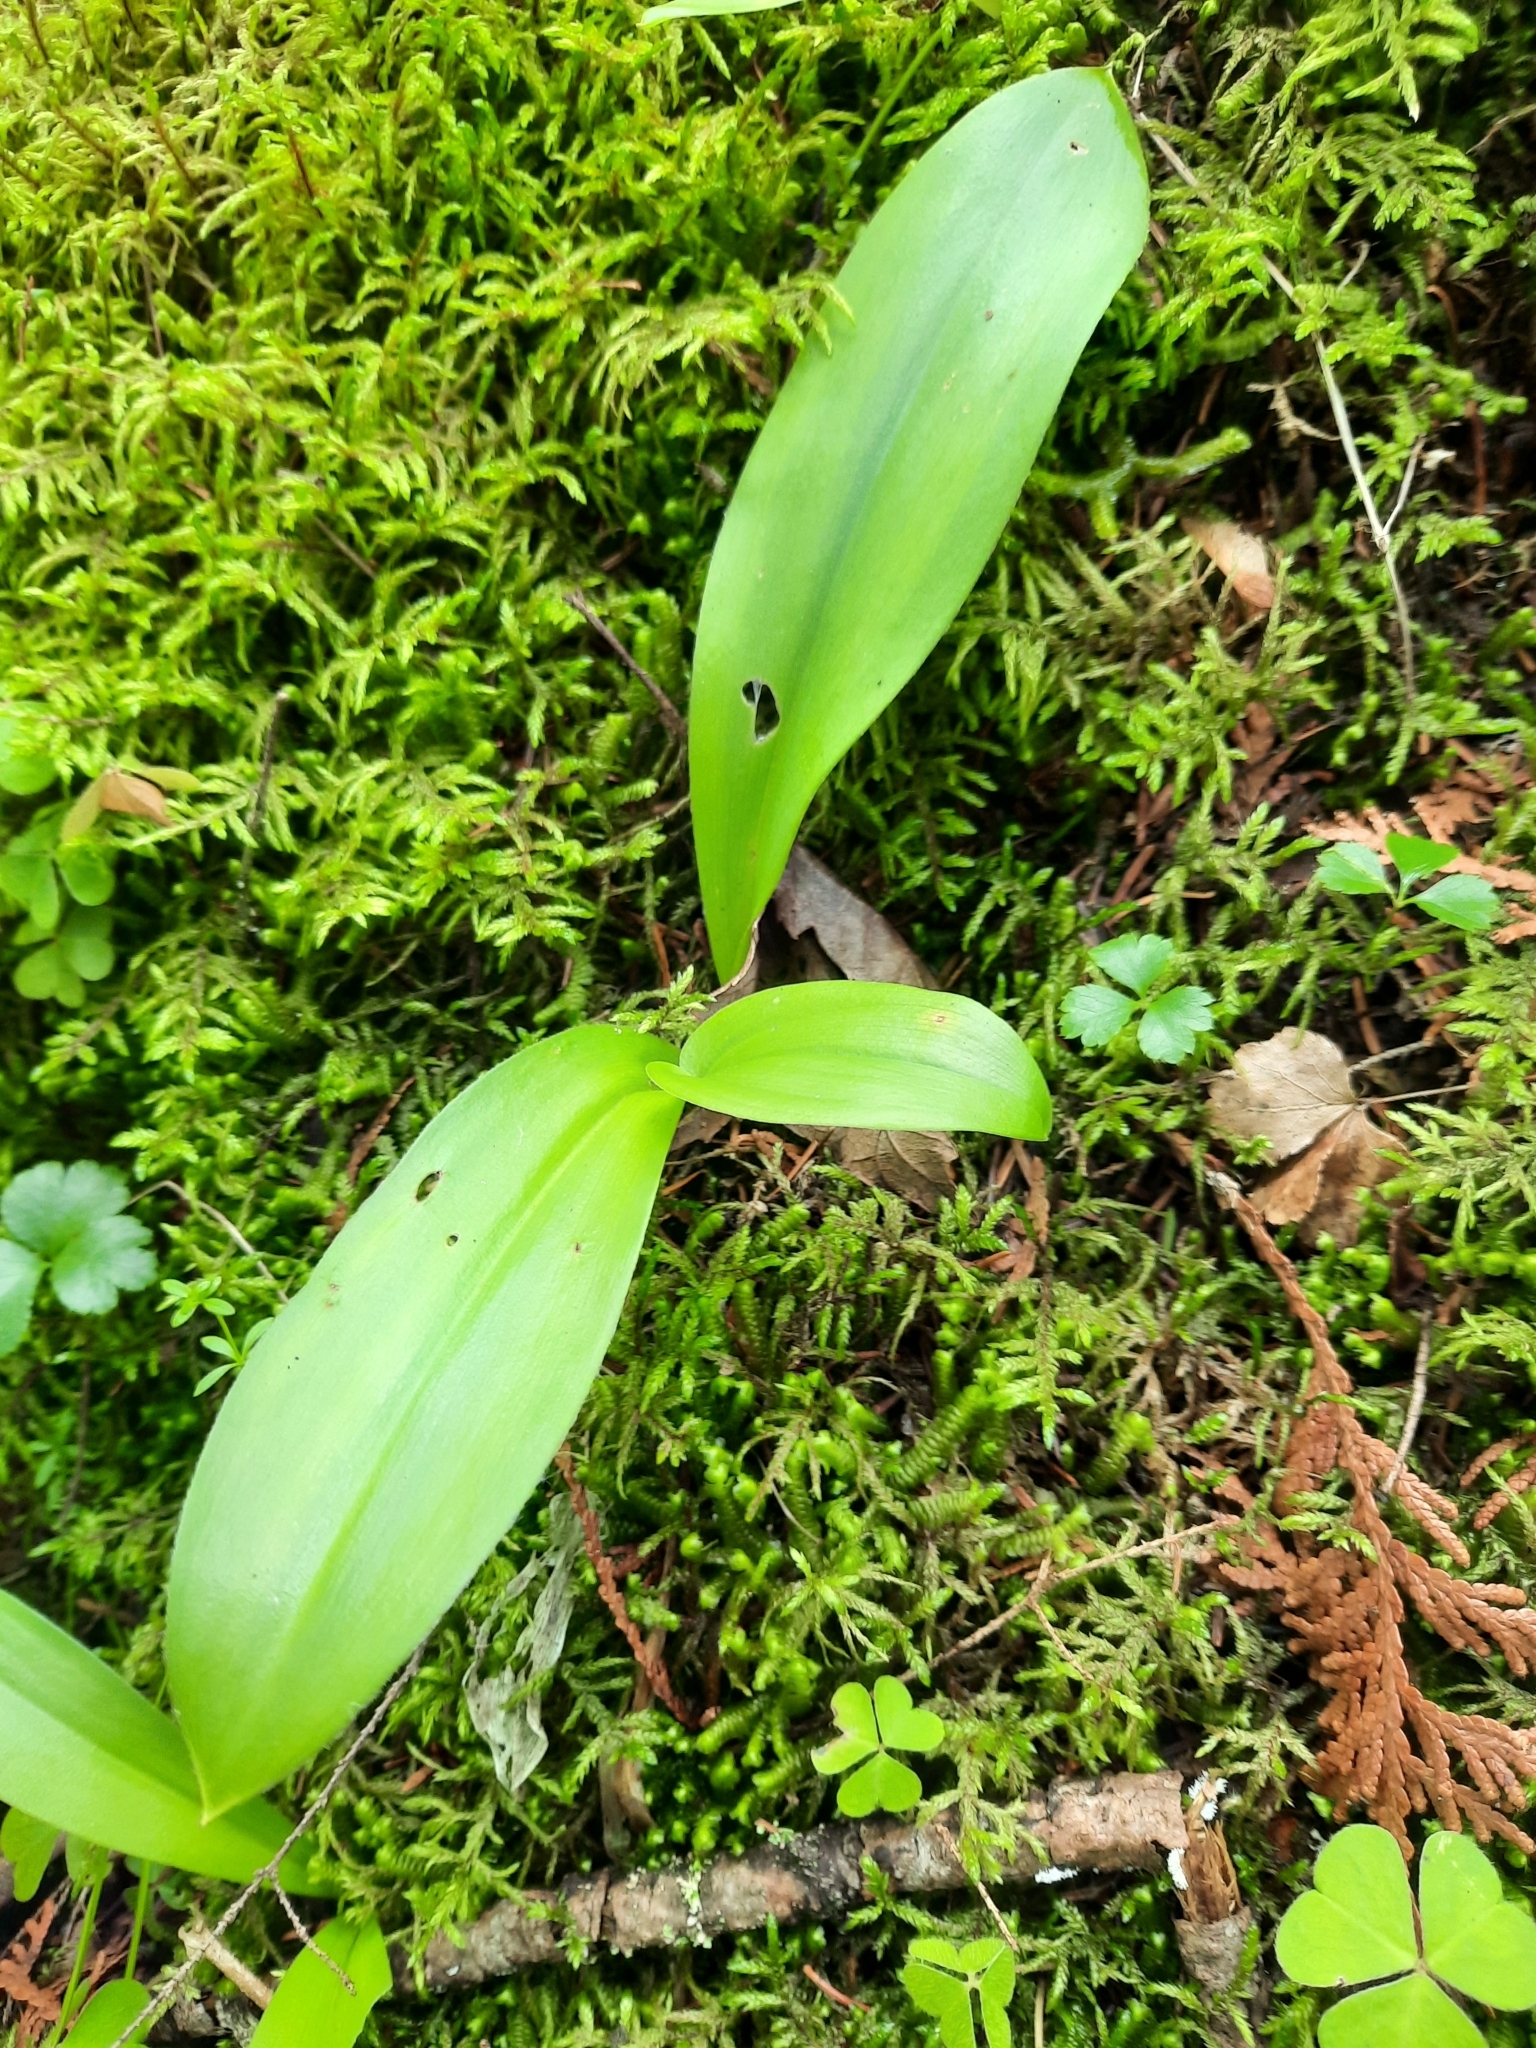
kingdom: Plantae
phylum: Tracheophyta
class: Liliopsida
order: Liliales
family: Liliaceae
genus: Clintonia
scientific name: Clintonia borealis
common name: Yellow clintonia
